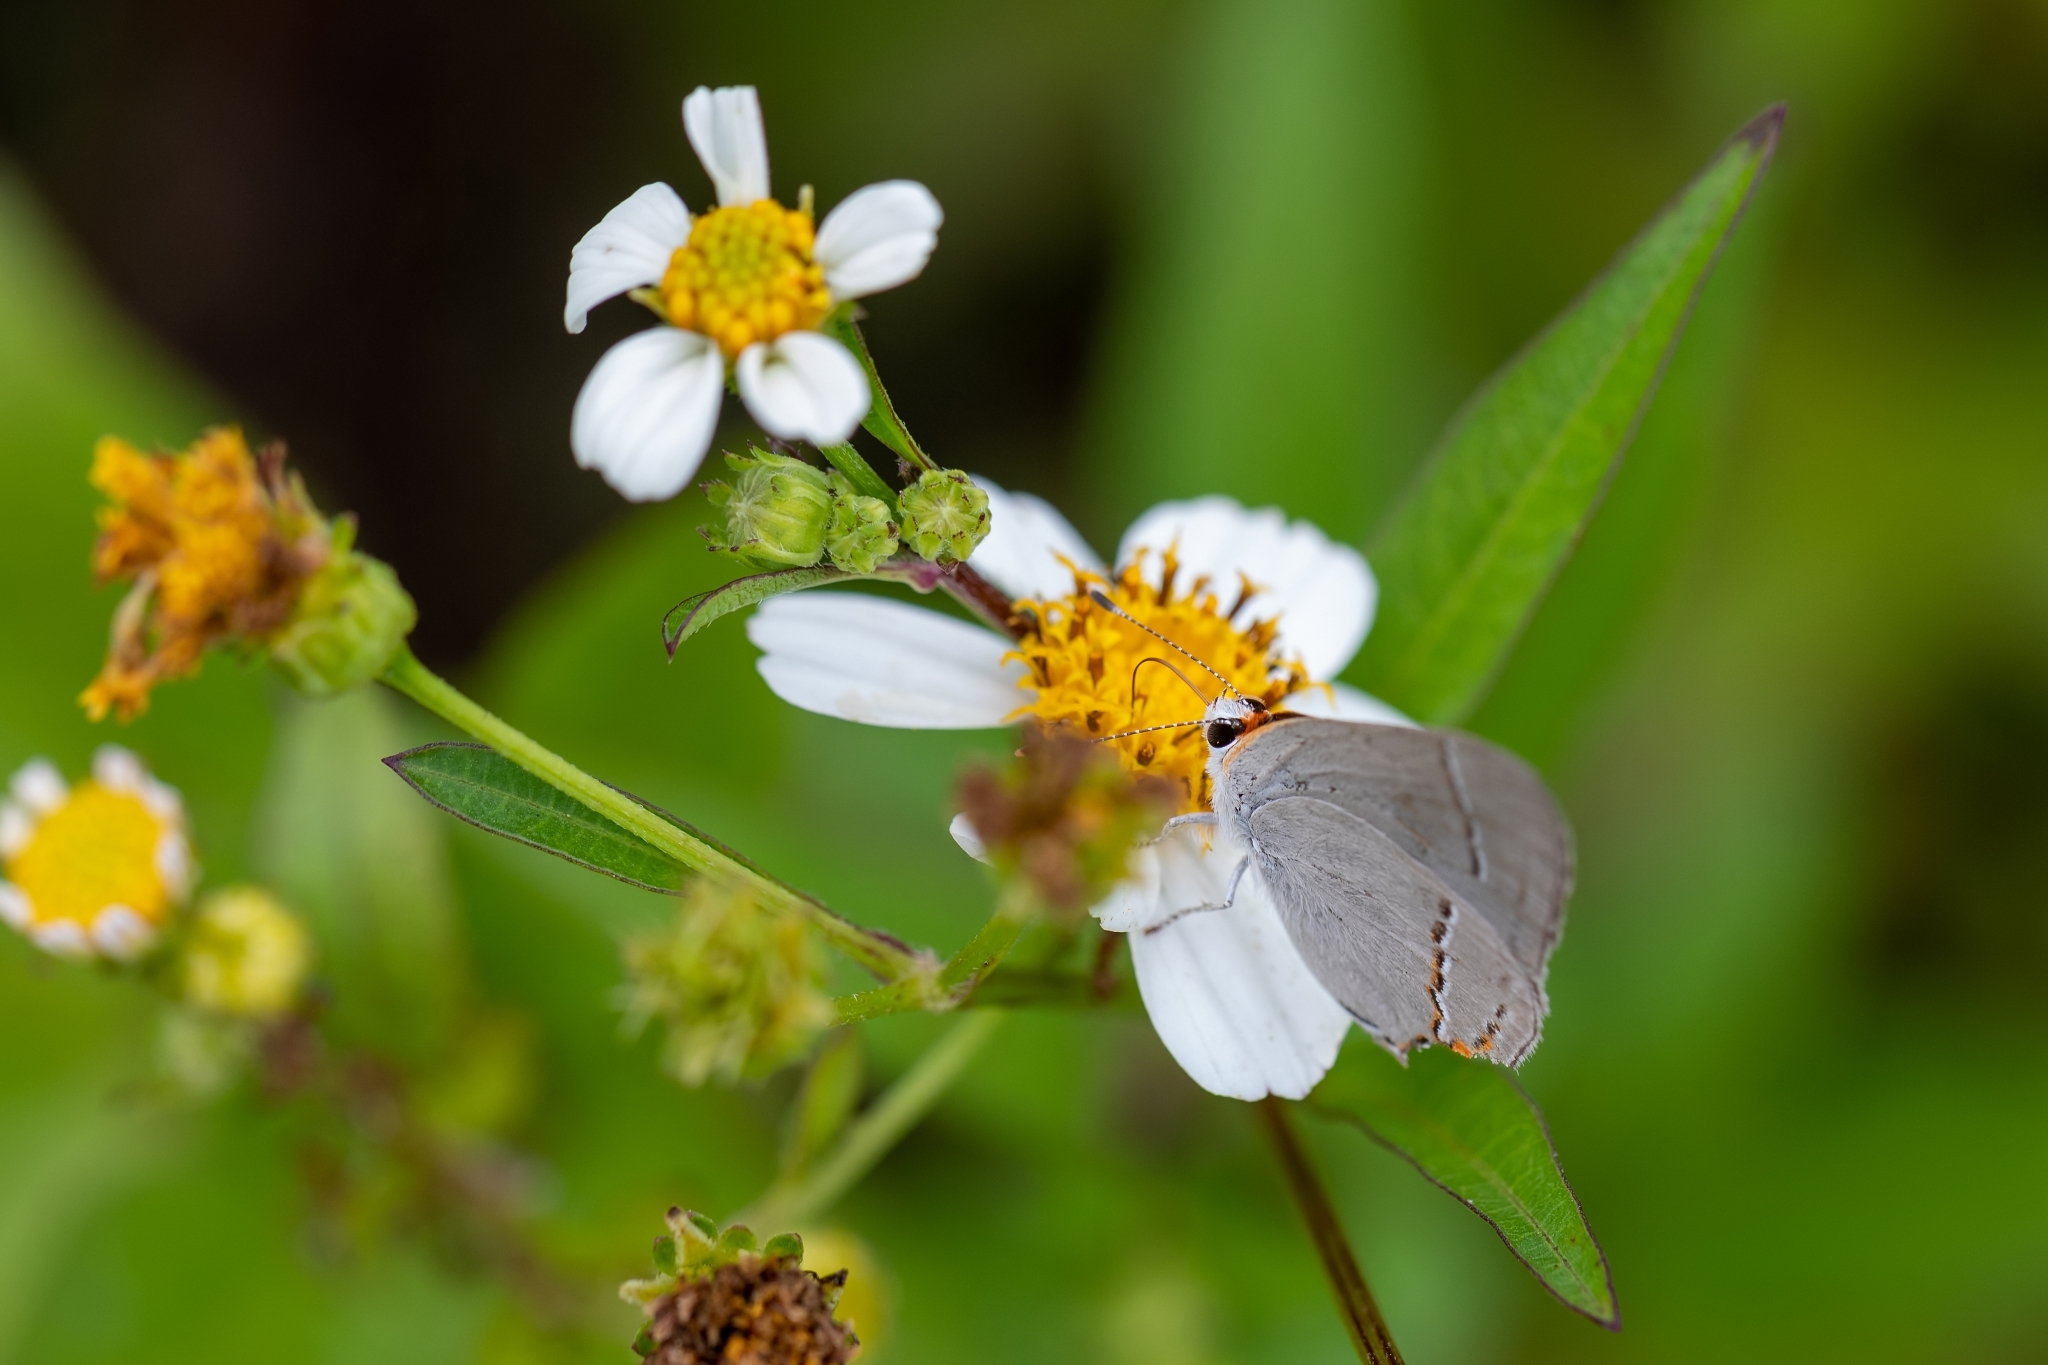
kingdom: Animalia
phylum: Arthropoda
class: Insecta
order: Lepidoptera
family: Lycaenidae
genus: Strymon
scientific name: Strymon melinus
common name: Gray hairstreak
